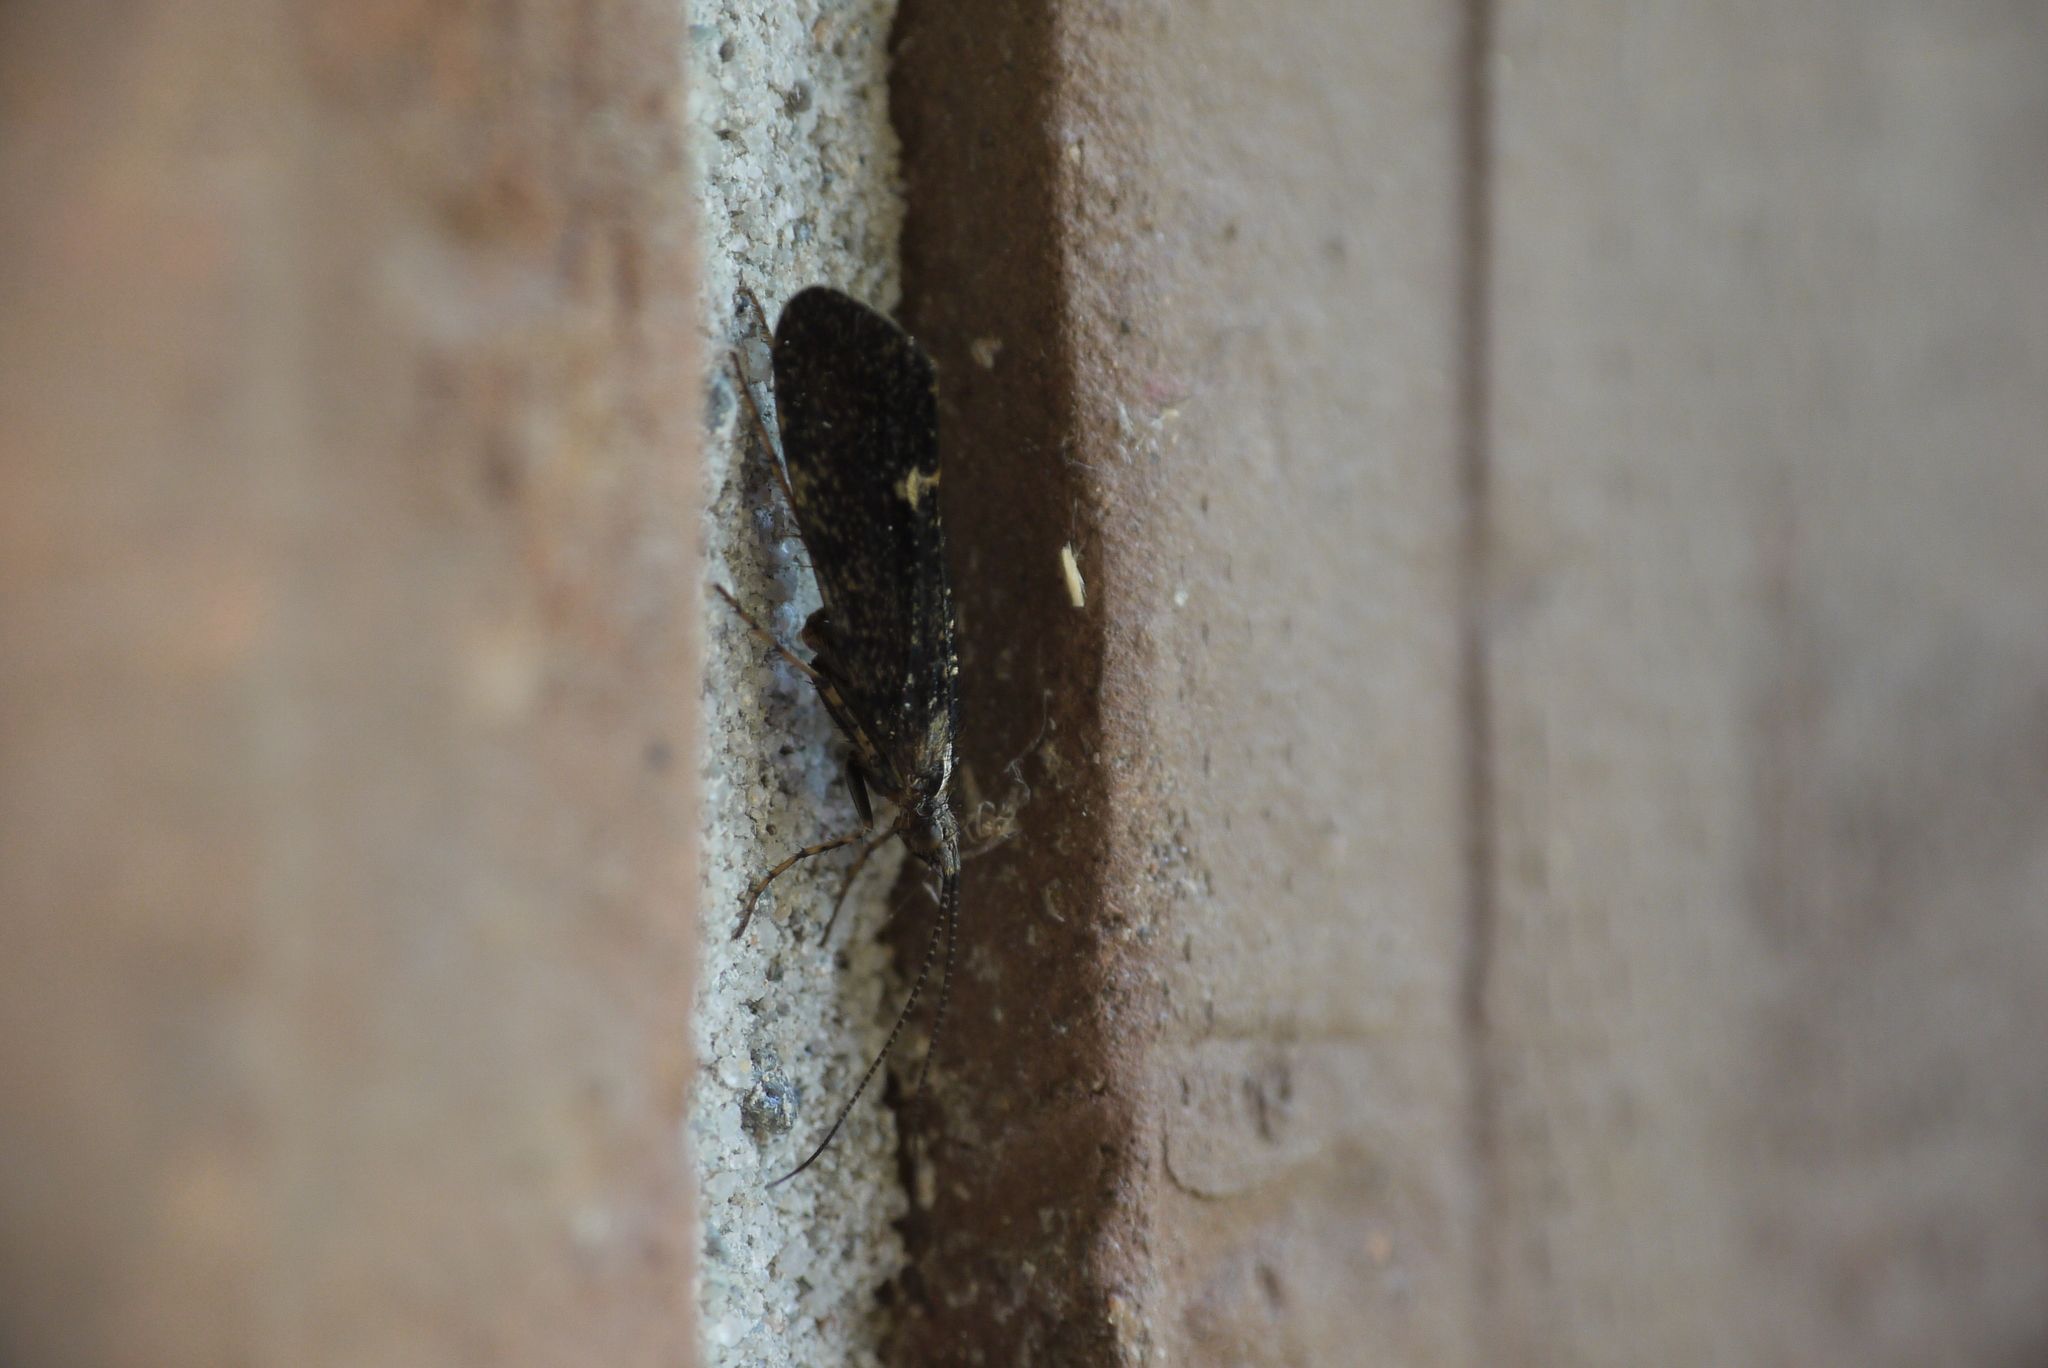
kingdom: Animalia
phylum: Arthropoda
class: Insecta
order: Trichoptera
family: Limnephilidae
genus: Limnephilus
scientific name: Limnephilus sparsus
